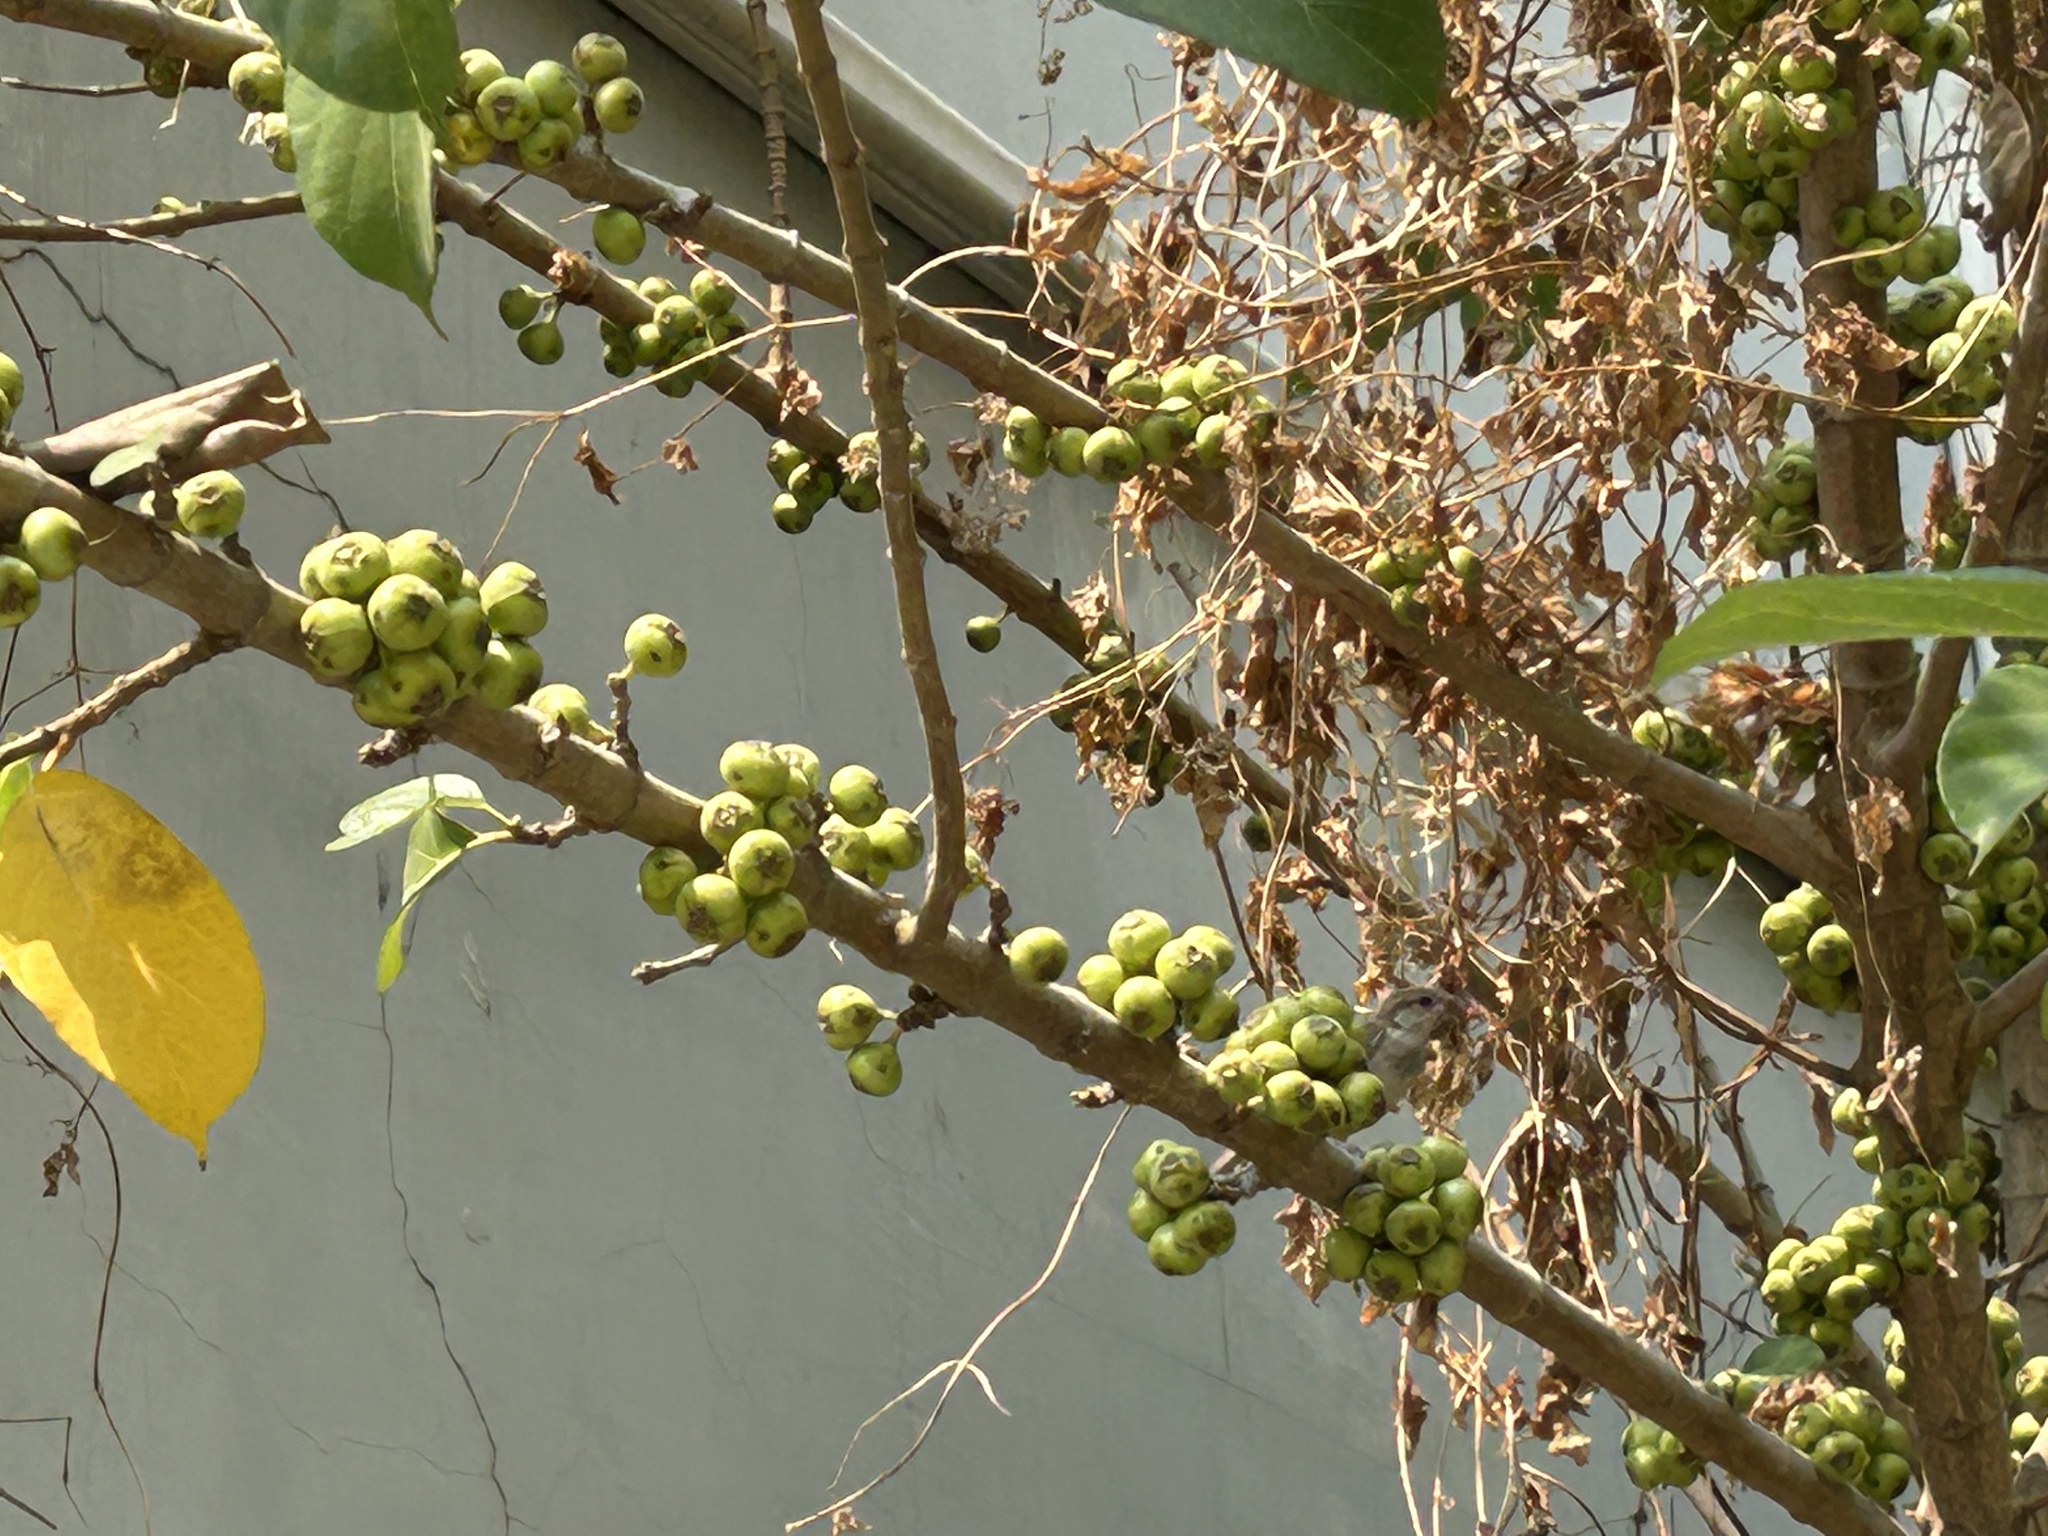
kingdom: Plantae
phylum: Tracheophyta
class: Magnoliopsida
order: Rosales
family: Moraceae
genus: Ficus
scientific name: Ficus racemosa
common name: Cluster fig
